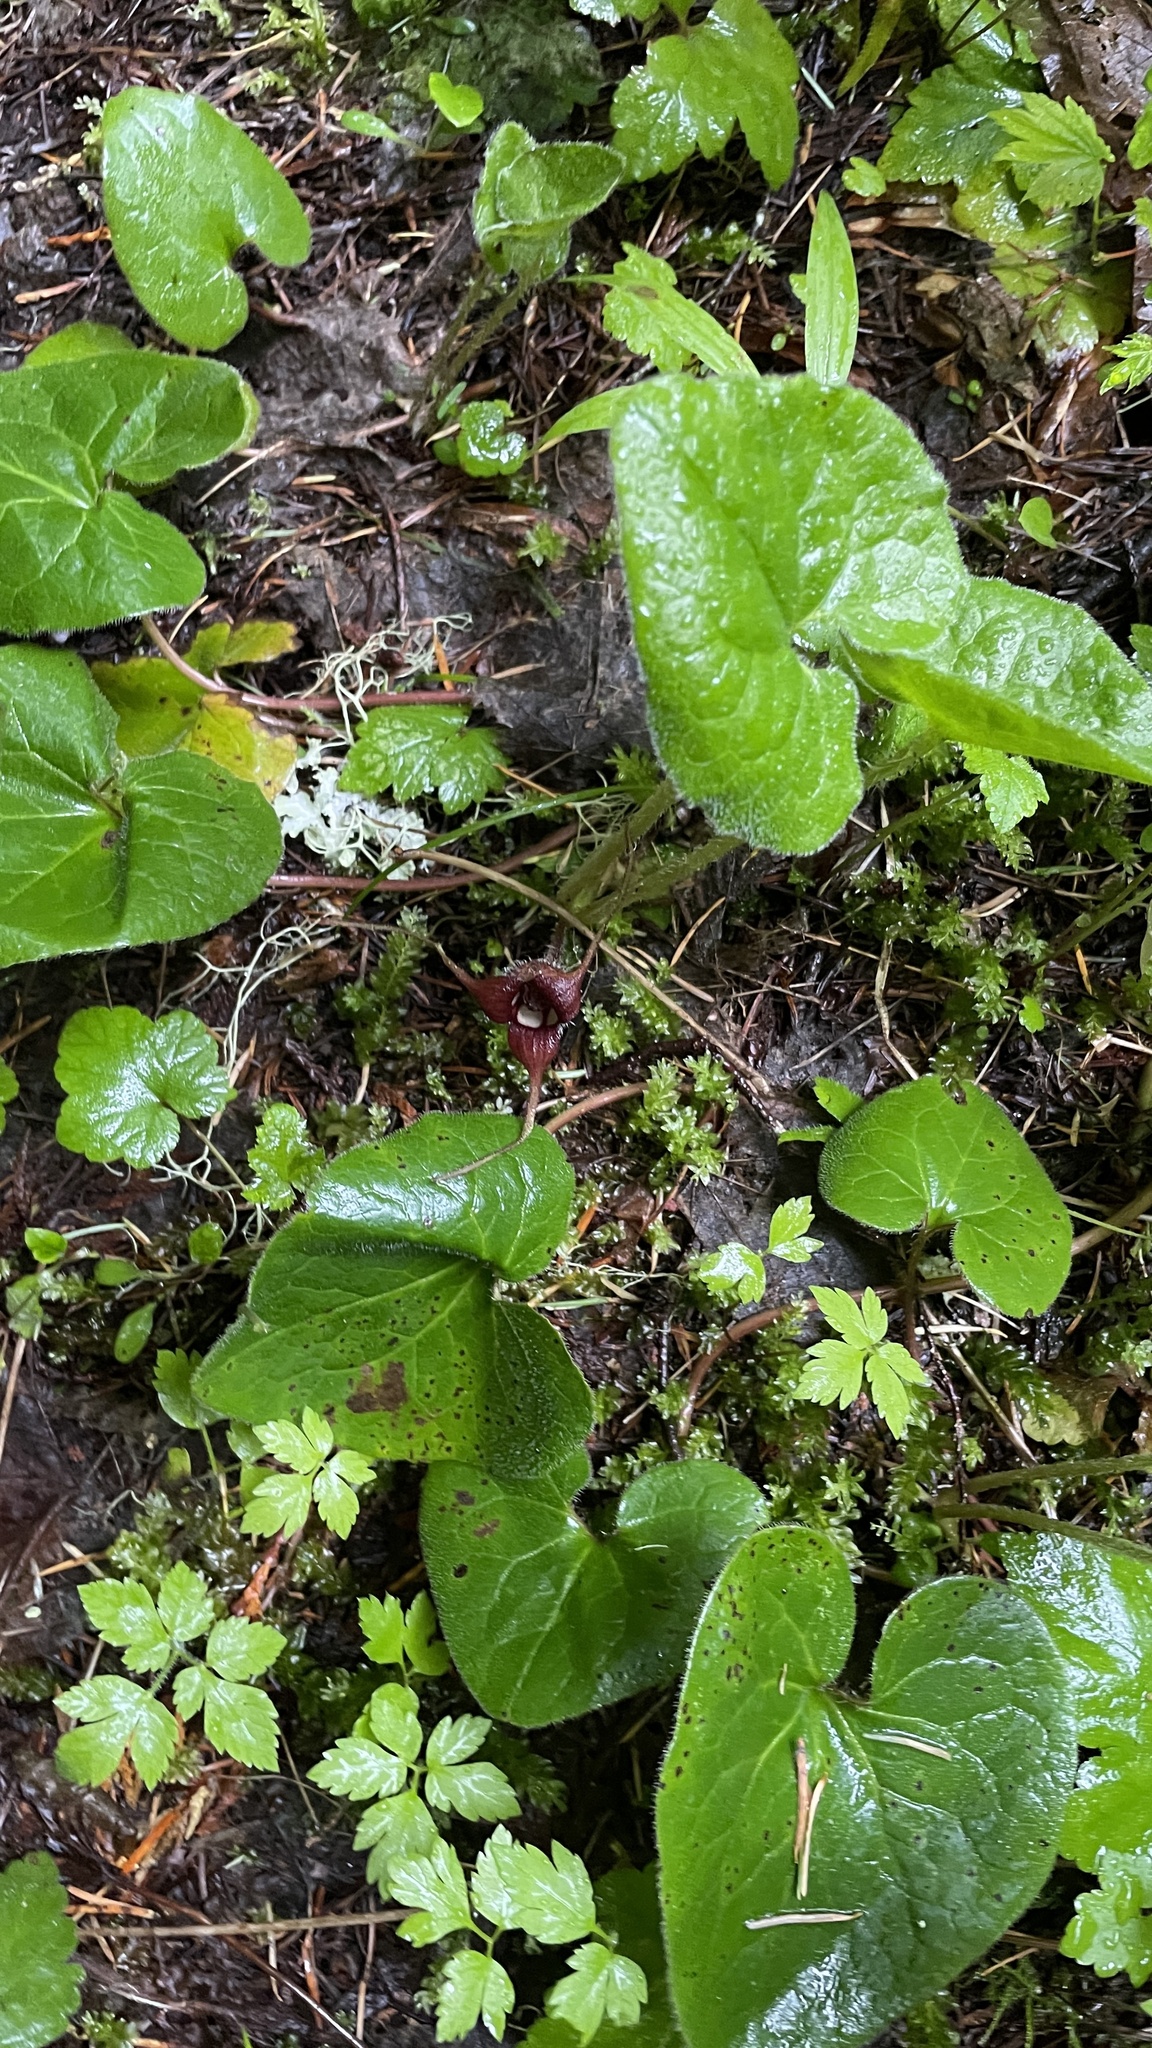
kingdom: Plantae
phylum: Tracheophyta
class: Magnoliopsida
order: Piperales
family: Aristolochiaceae
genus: Asarum
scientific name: Asarum caudatum
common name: Wild ginger
